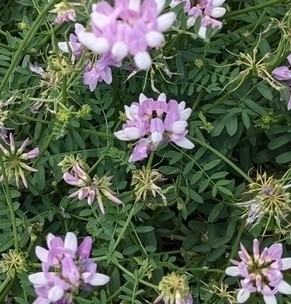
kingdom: Plantae
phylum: Tracheophyta
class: Magnoliopsida
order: Fabales
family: Fabaceae
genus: Coronilla
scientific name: Coronilla varia
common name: Crownvetch
